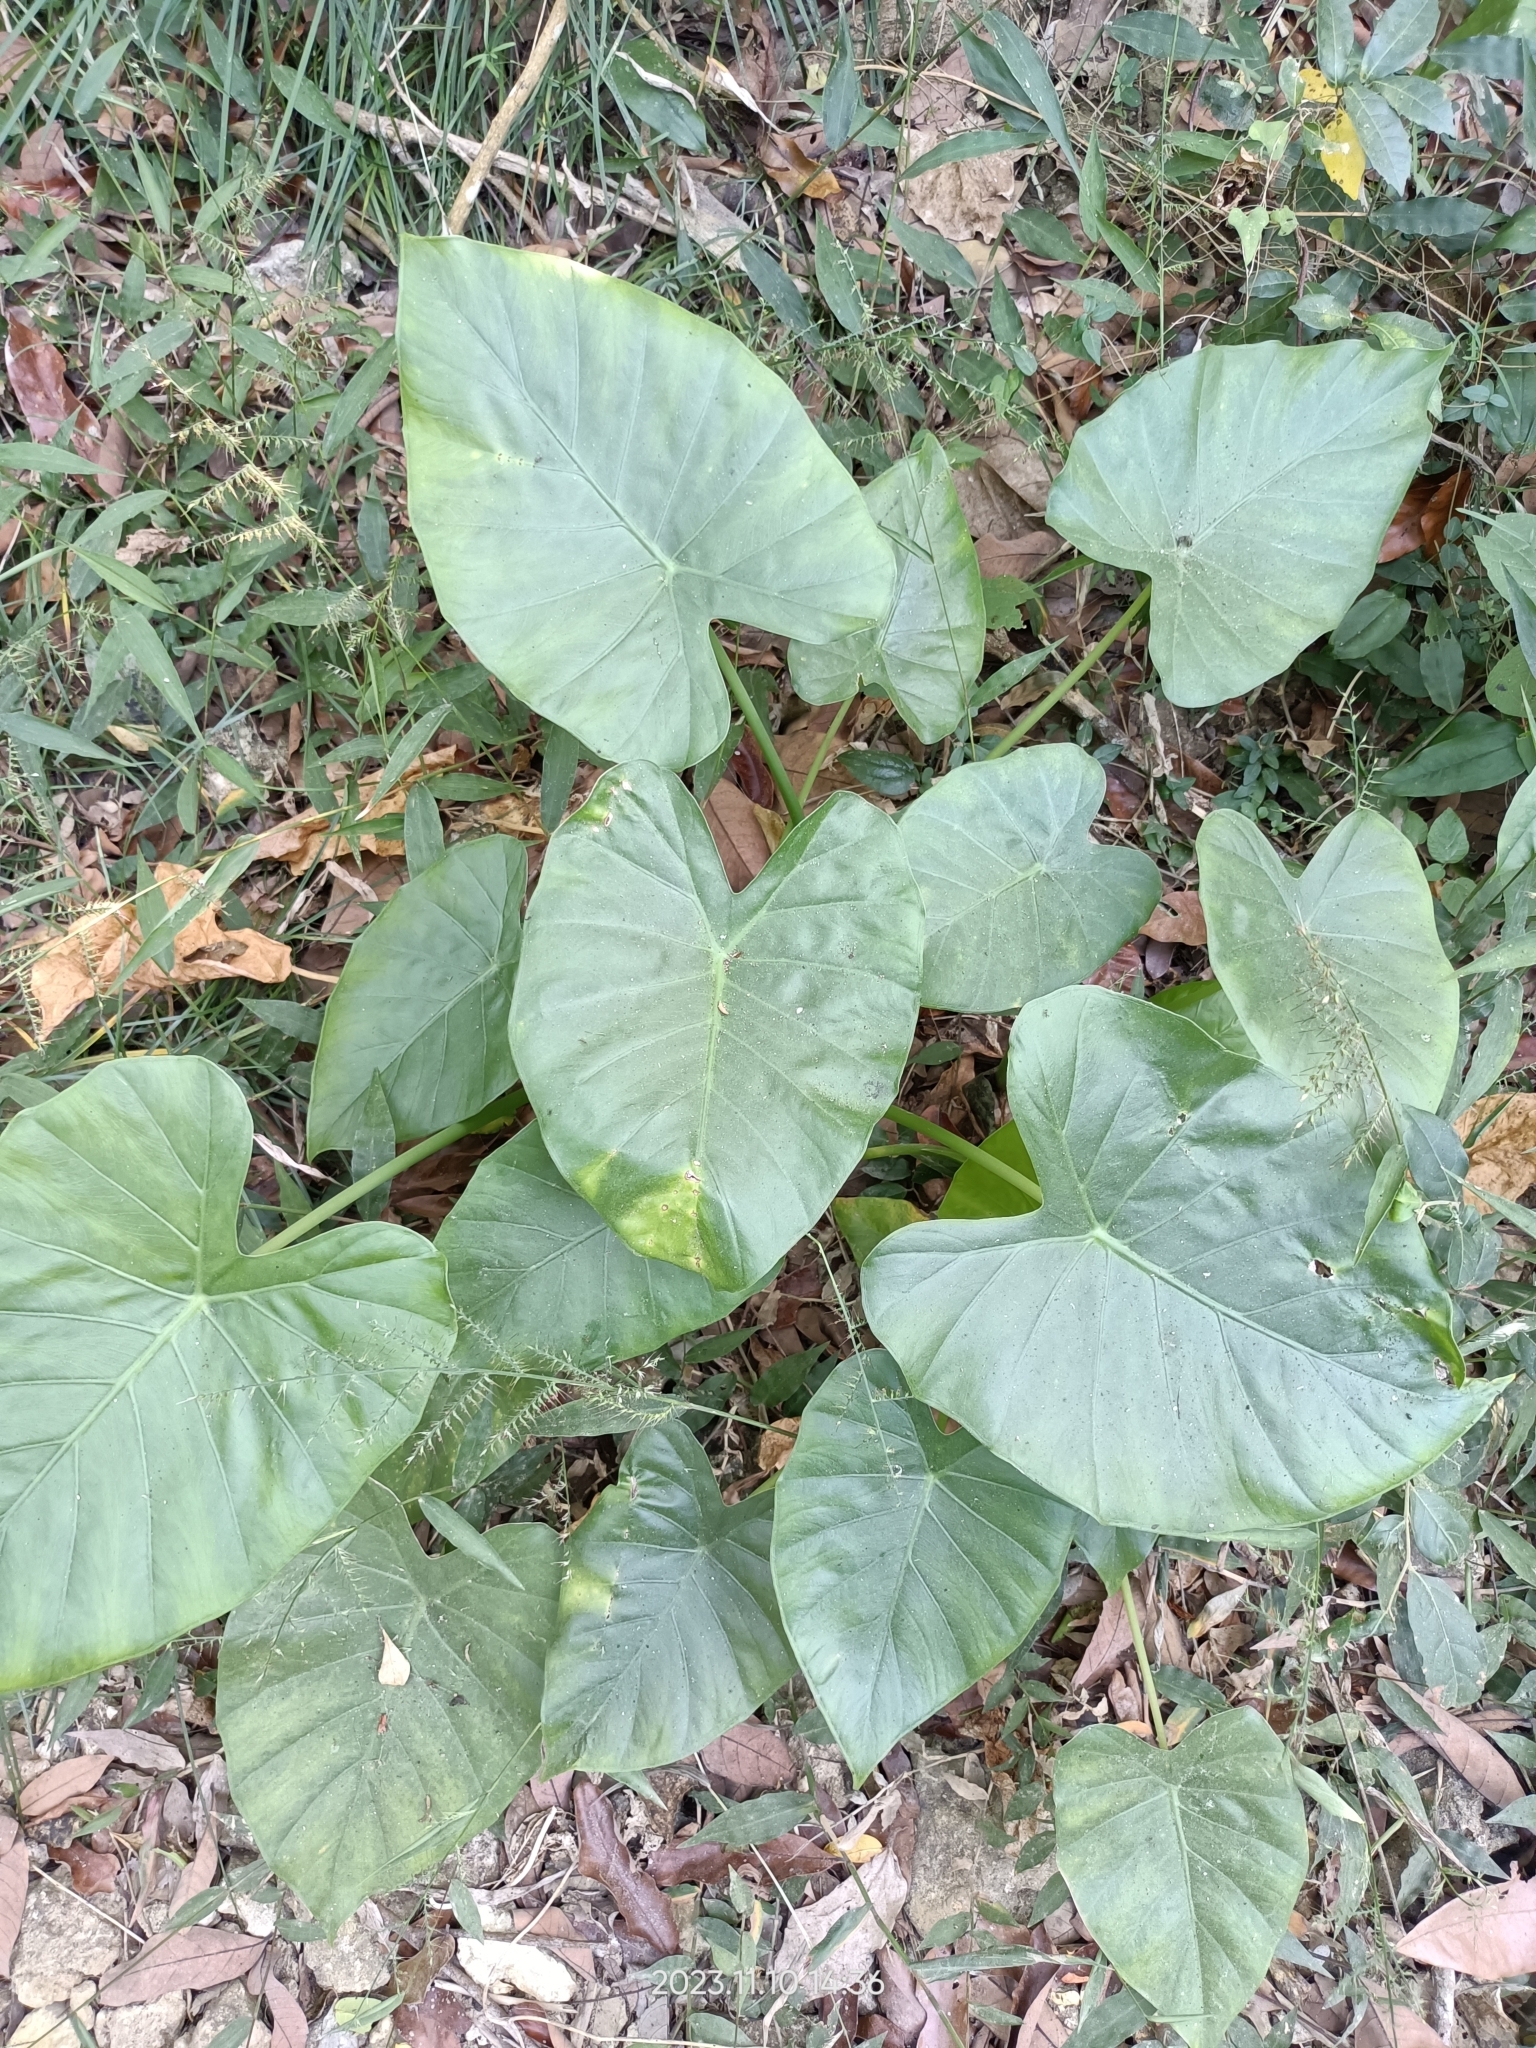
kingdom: Plantae
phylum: Tracheophyta
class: Liliopsida
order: Alismatales
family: Araceae
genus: Alocasia
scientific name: Alocasia odora
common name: Asian taro
